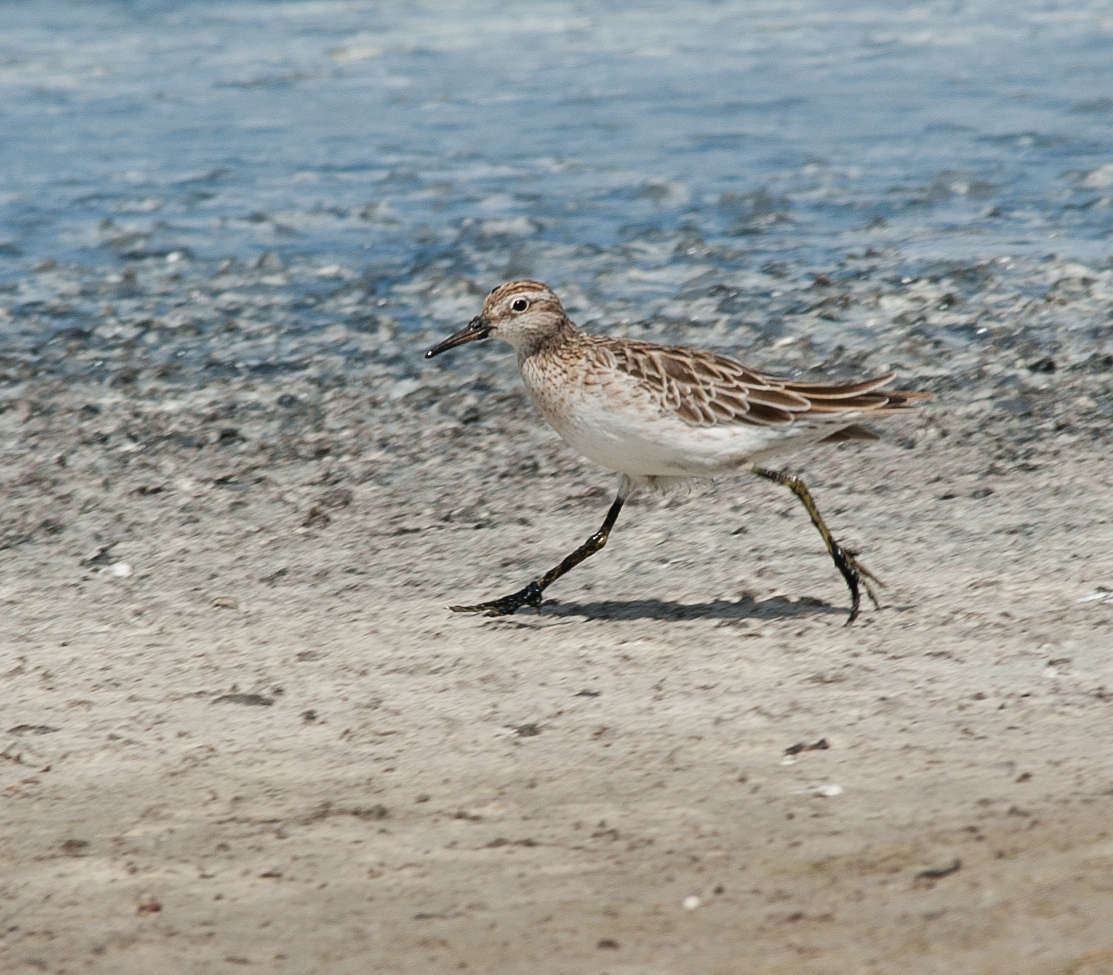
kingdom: Animalia
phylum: Chordata
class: Aves
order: Charadriiformes
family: Scolopacidae
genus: Calidris
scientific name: Calidris acuminata
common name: Sharp-tailed sandpiper
